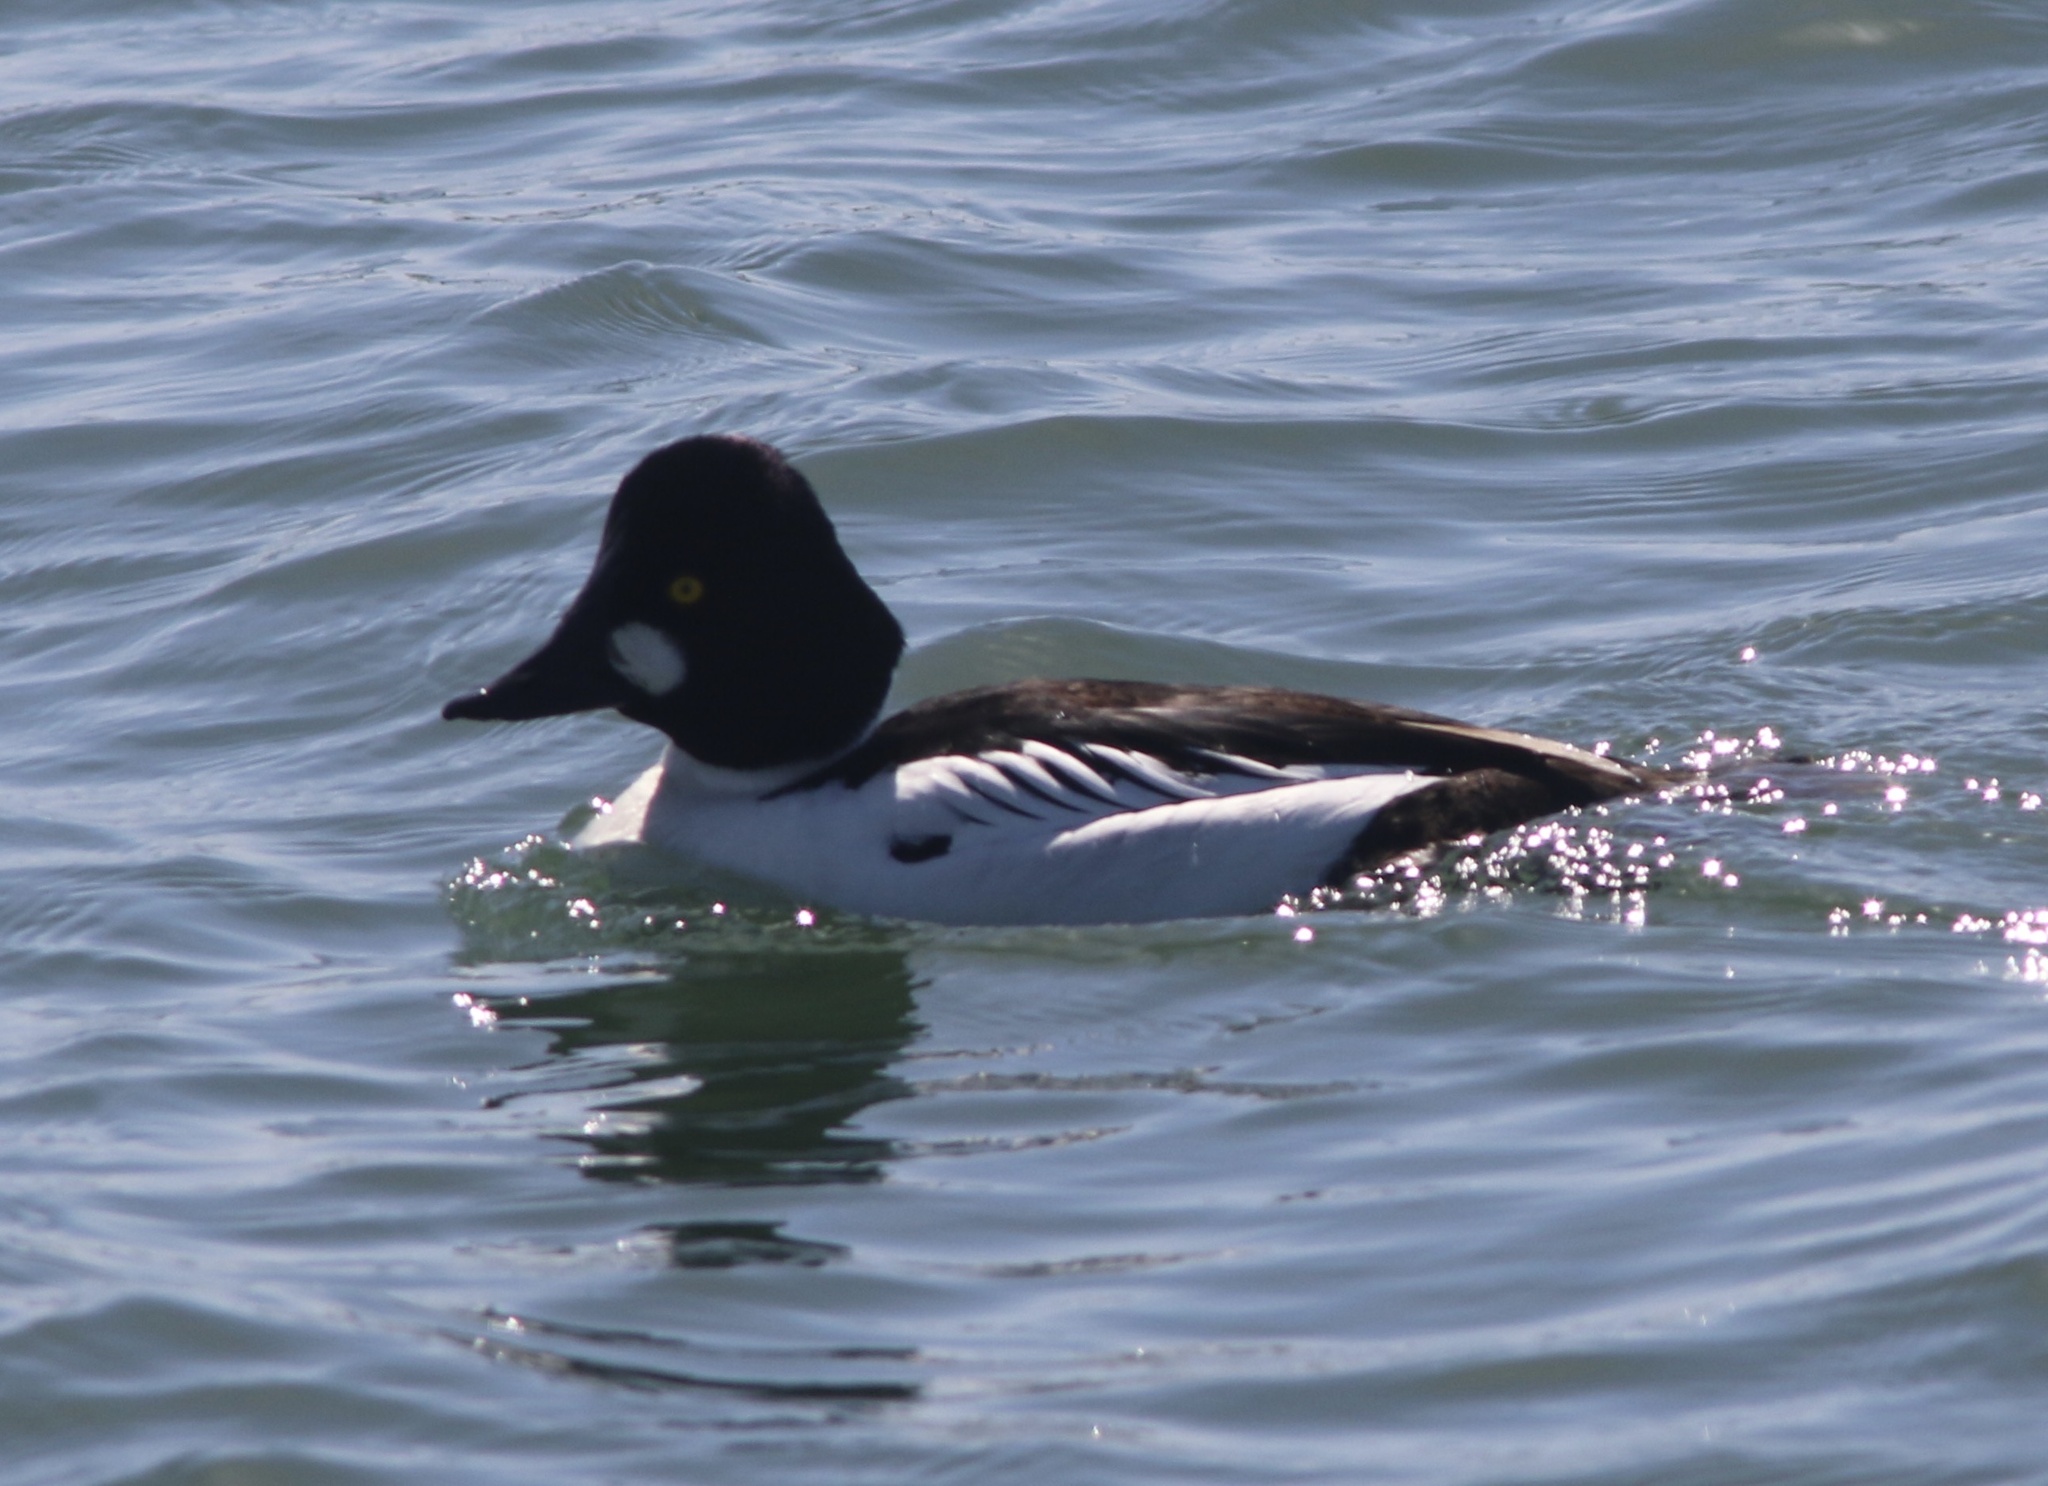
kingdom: Animalia
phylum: Chordata
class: Aves
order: Anseriformes
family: Anatidae
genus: Bucephala
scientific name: Bucephala clangula
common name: Common goldeneye
